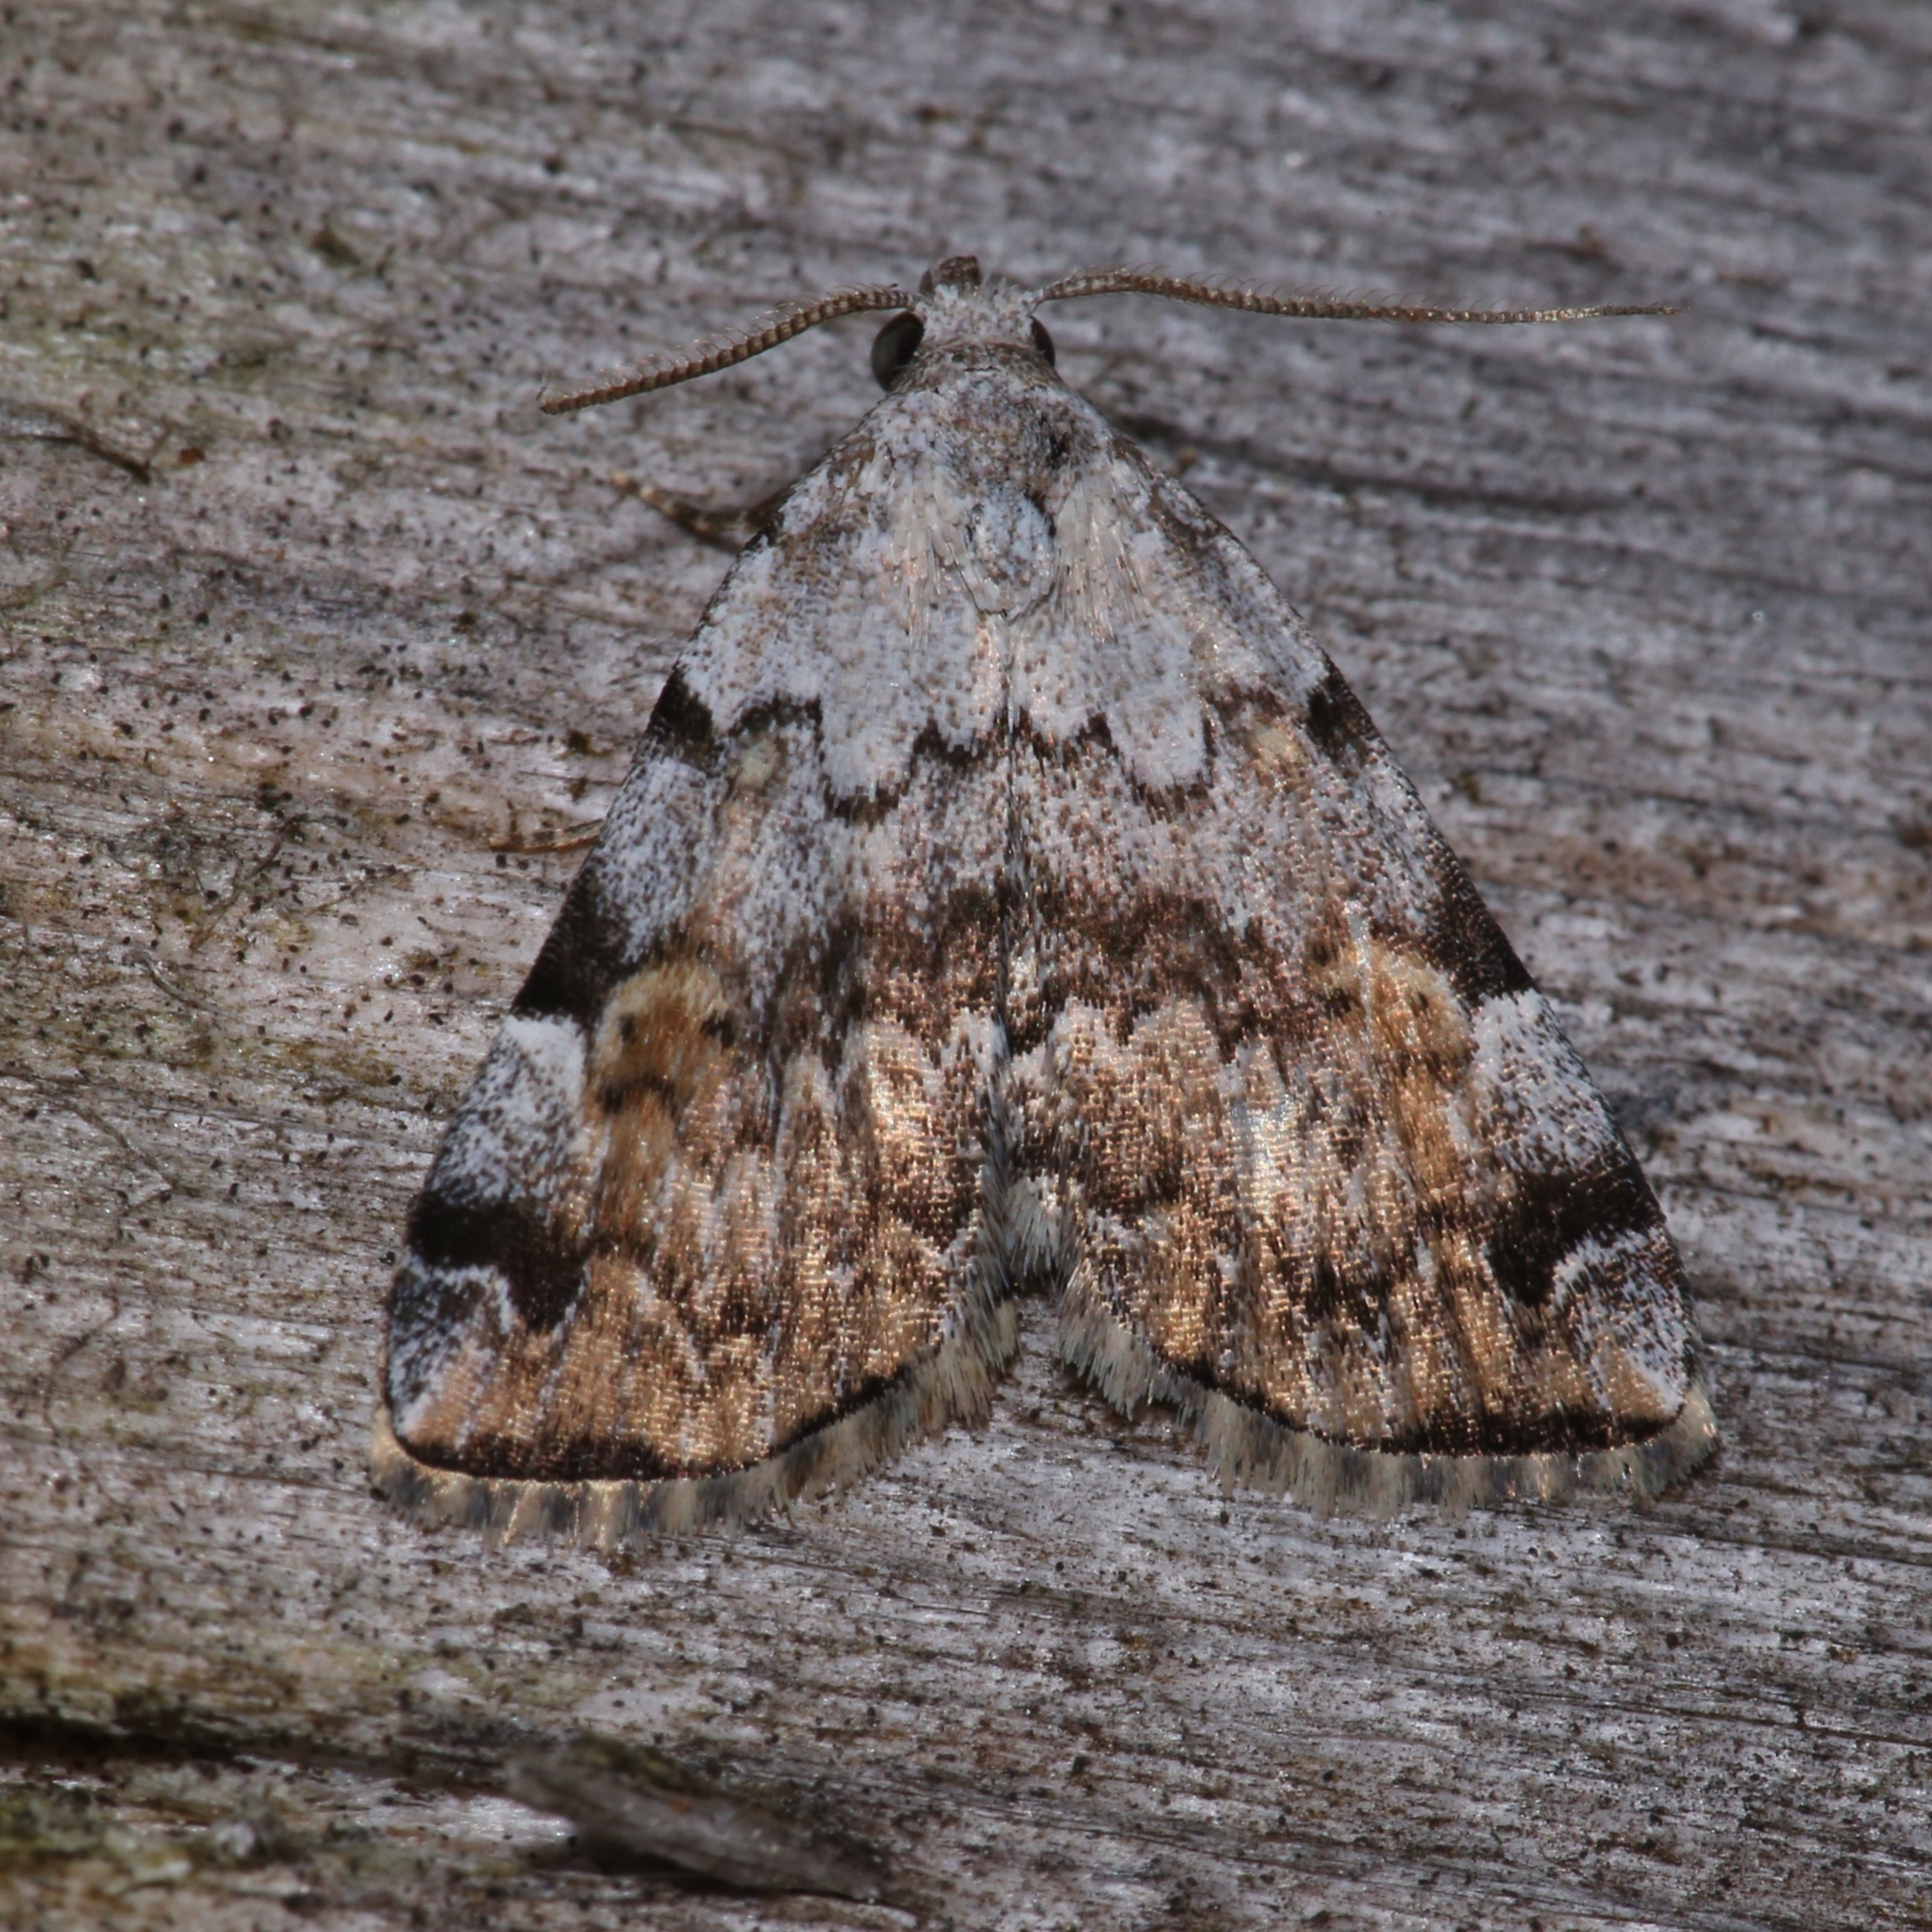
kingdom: Animalia
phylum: Arthropoda
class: Insecta
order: Lepidoptera
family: Erebidae
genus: Idia
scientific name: Idia americalis
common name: American idia moth
